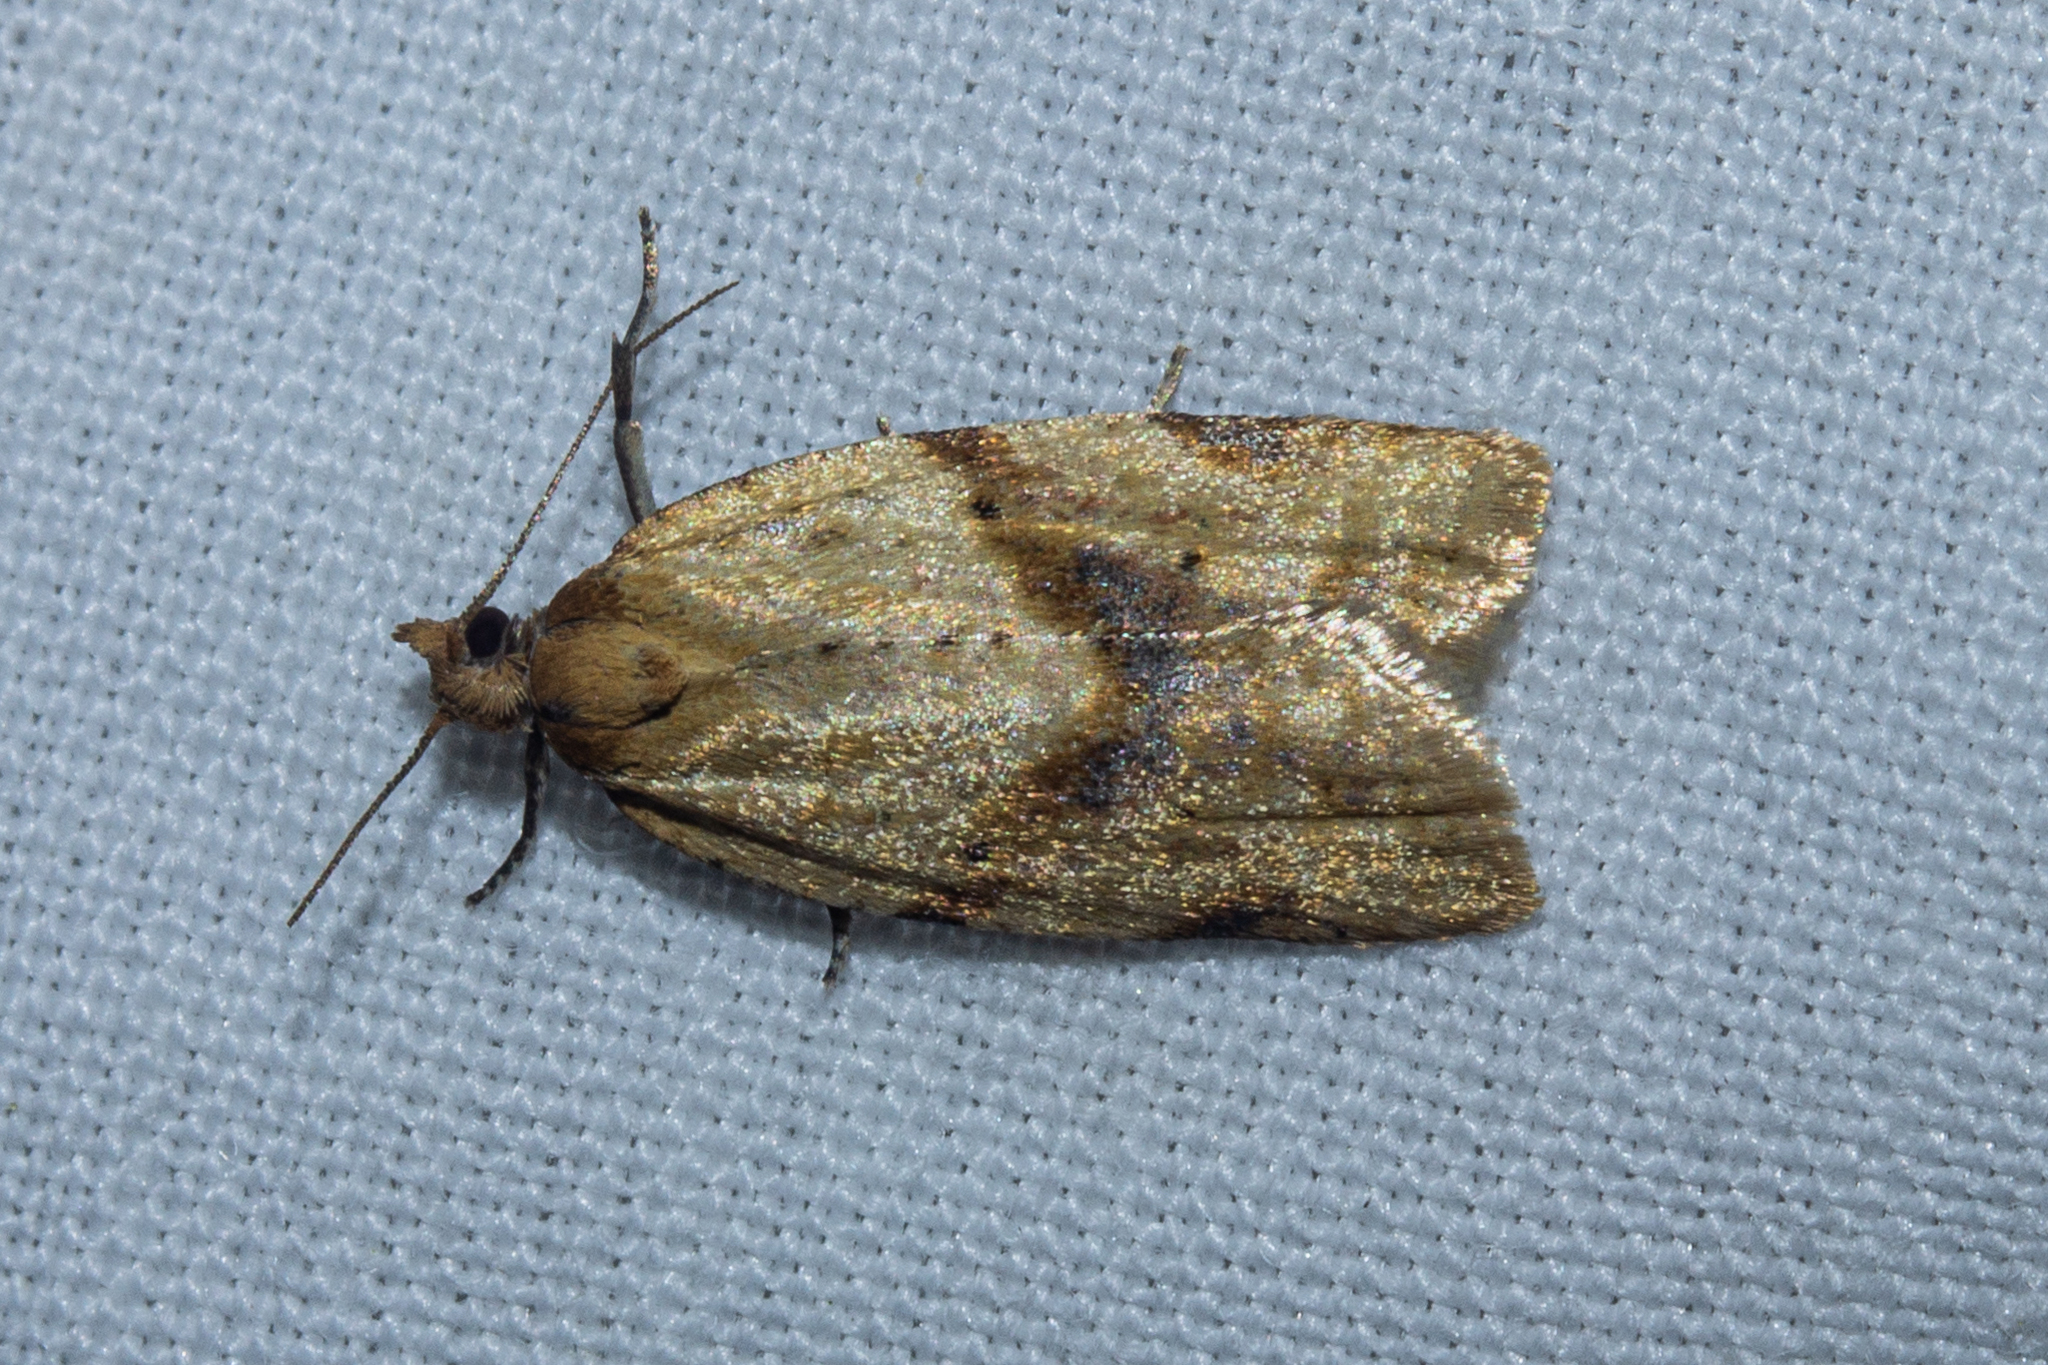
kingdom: Animalia
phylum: Arthropoda
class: Insecta
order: Lepidoptera
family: Tortricidae
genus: Clepsis
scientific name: Clepsis
